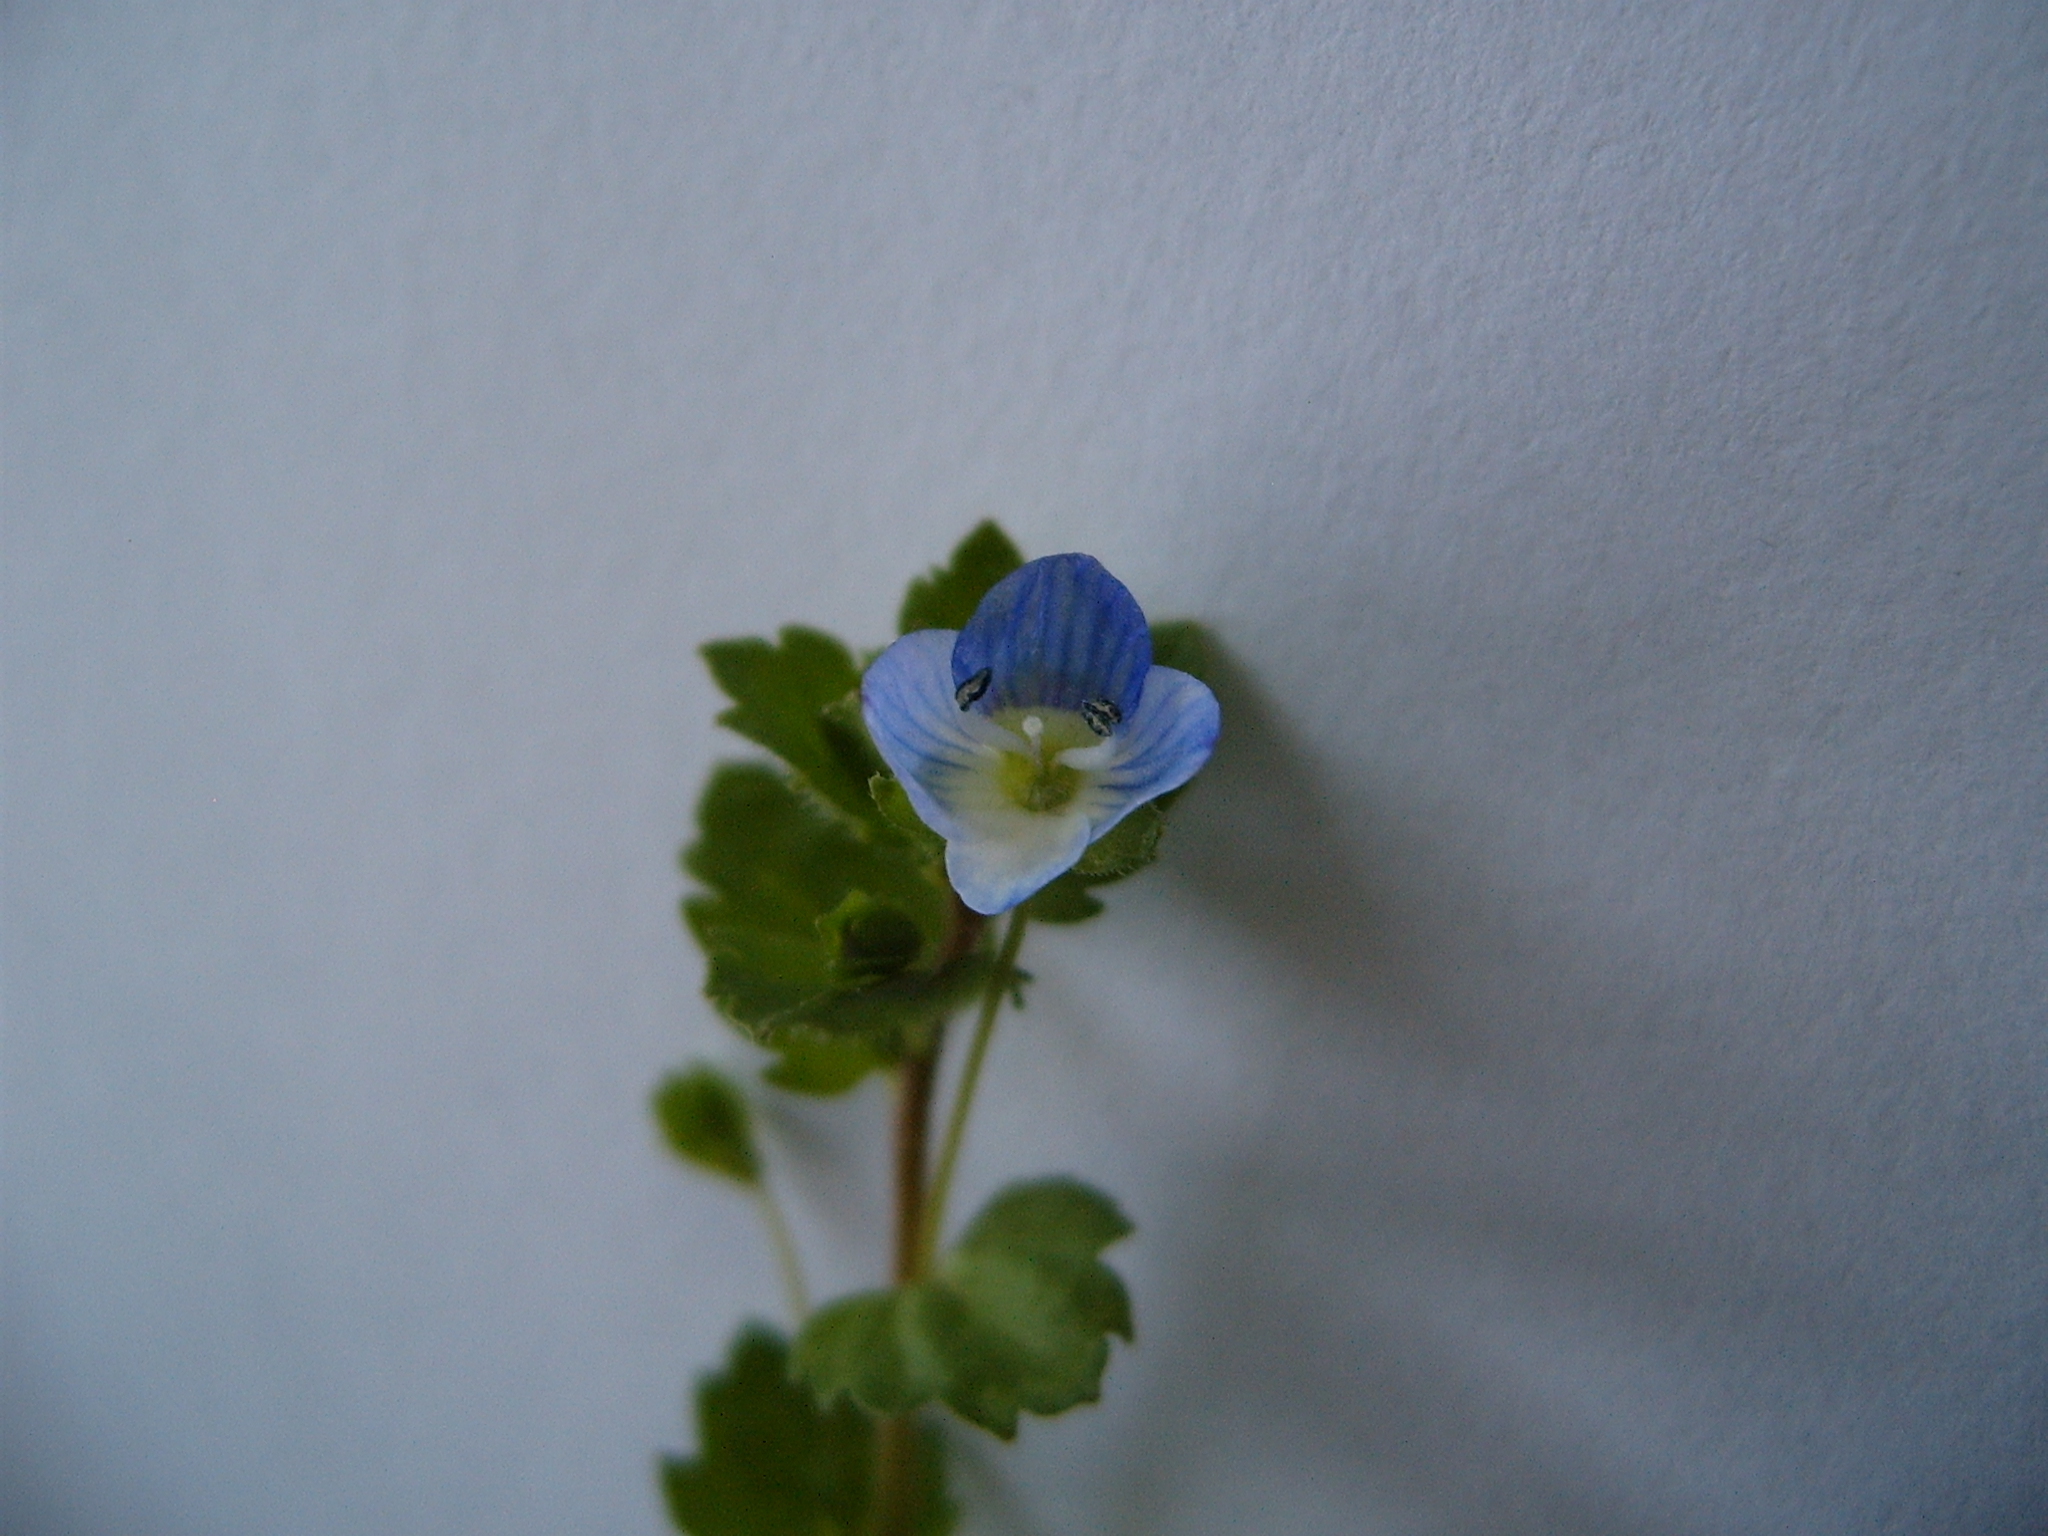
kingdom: Plantae
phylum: Tracheophyta
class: Magnoliopsida
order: Lamiales
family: Plantaginaceae
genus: Veronica
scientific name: Veronica polita
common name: Grey field-speedwell
